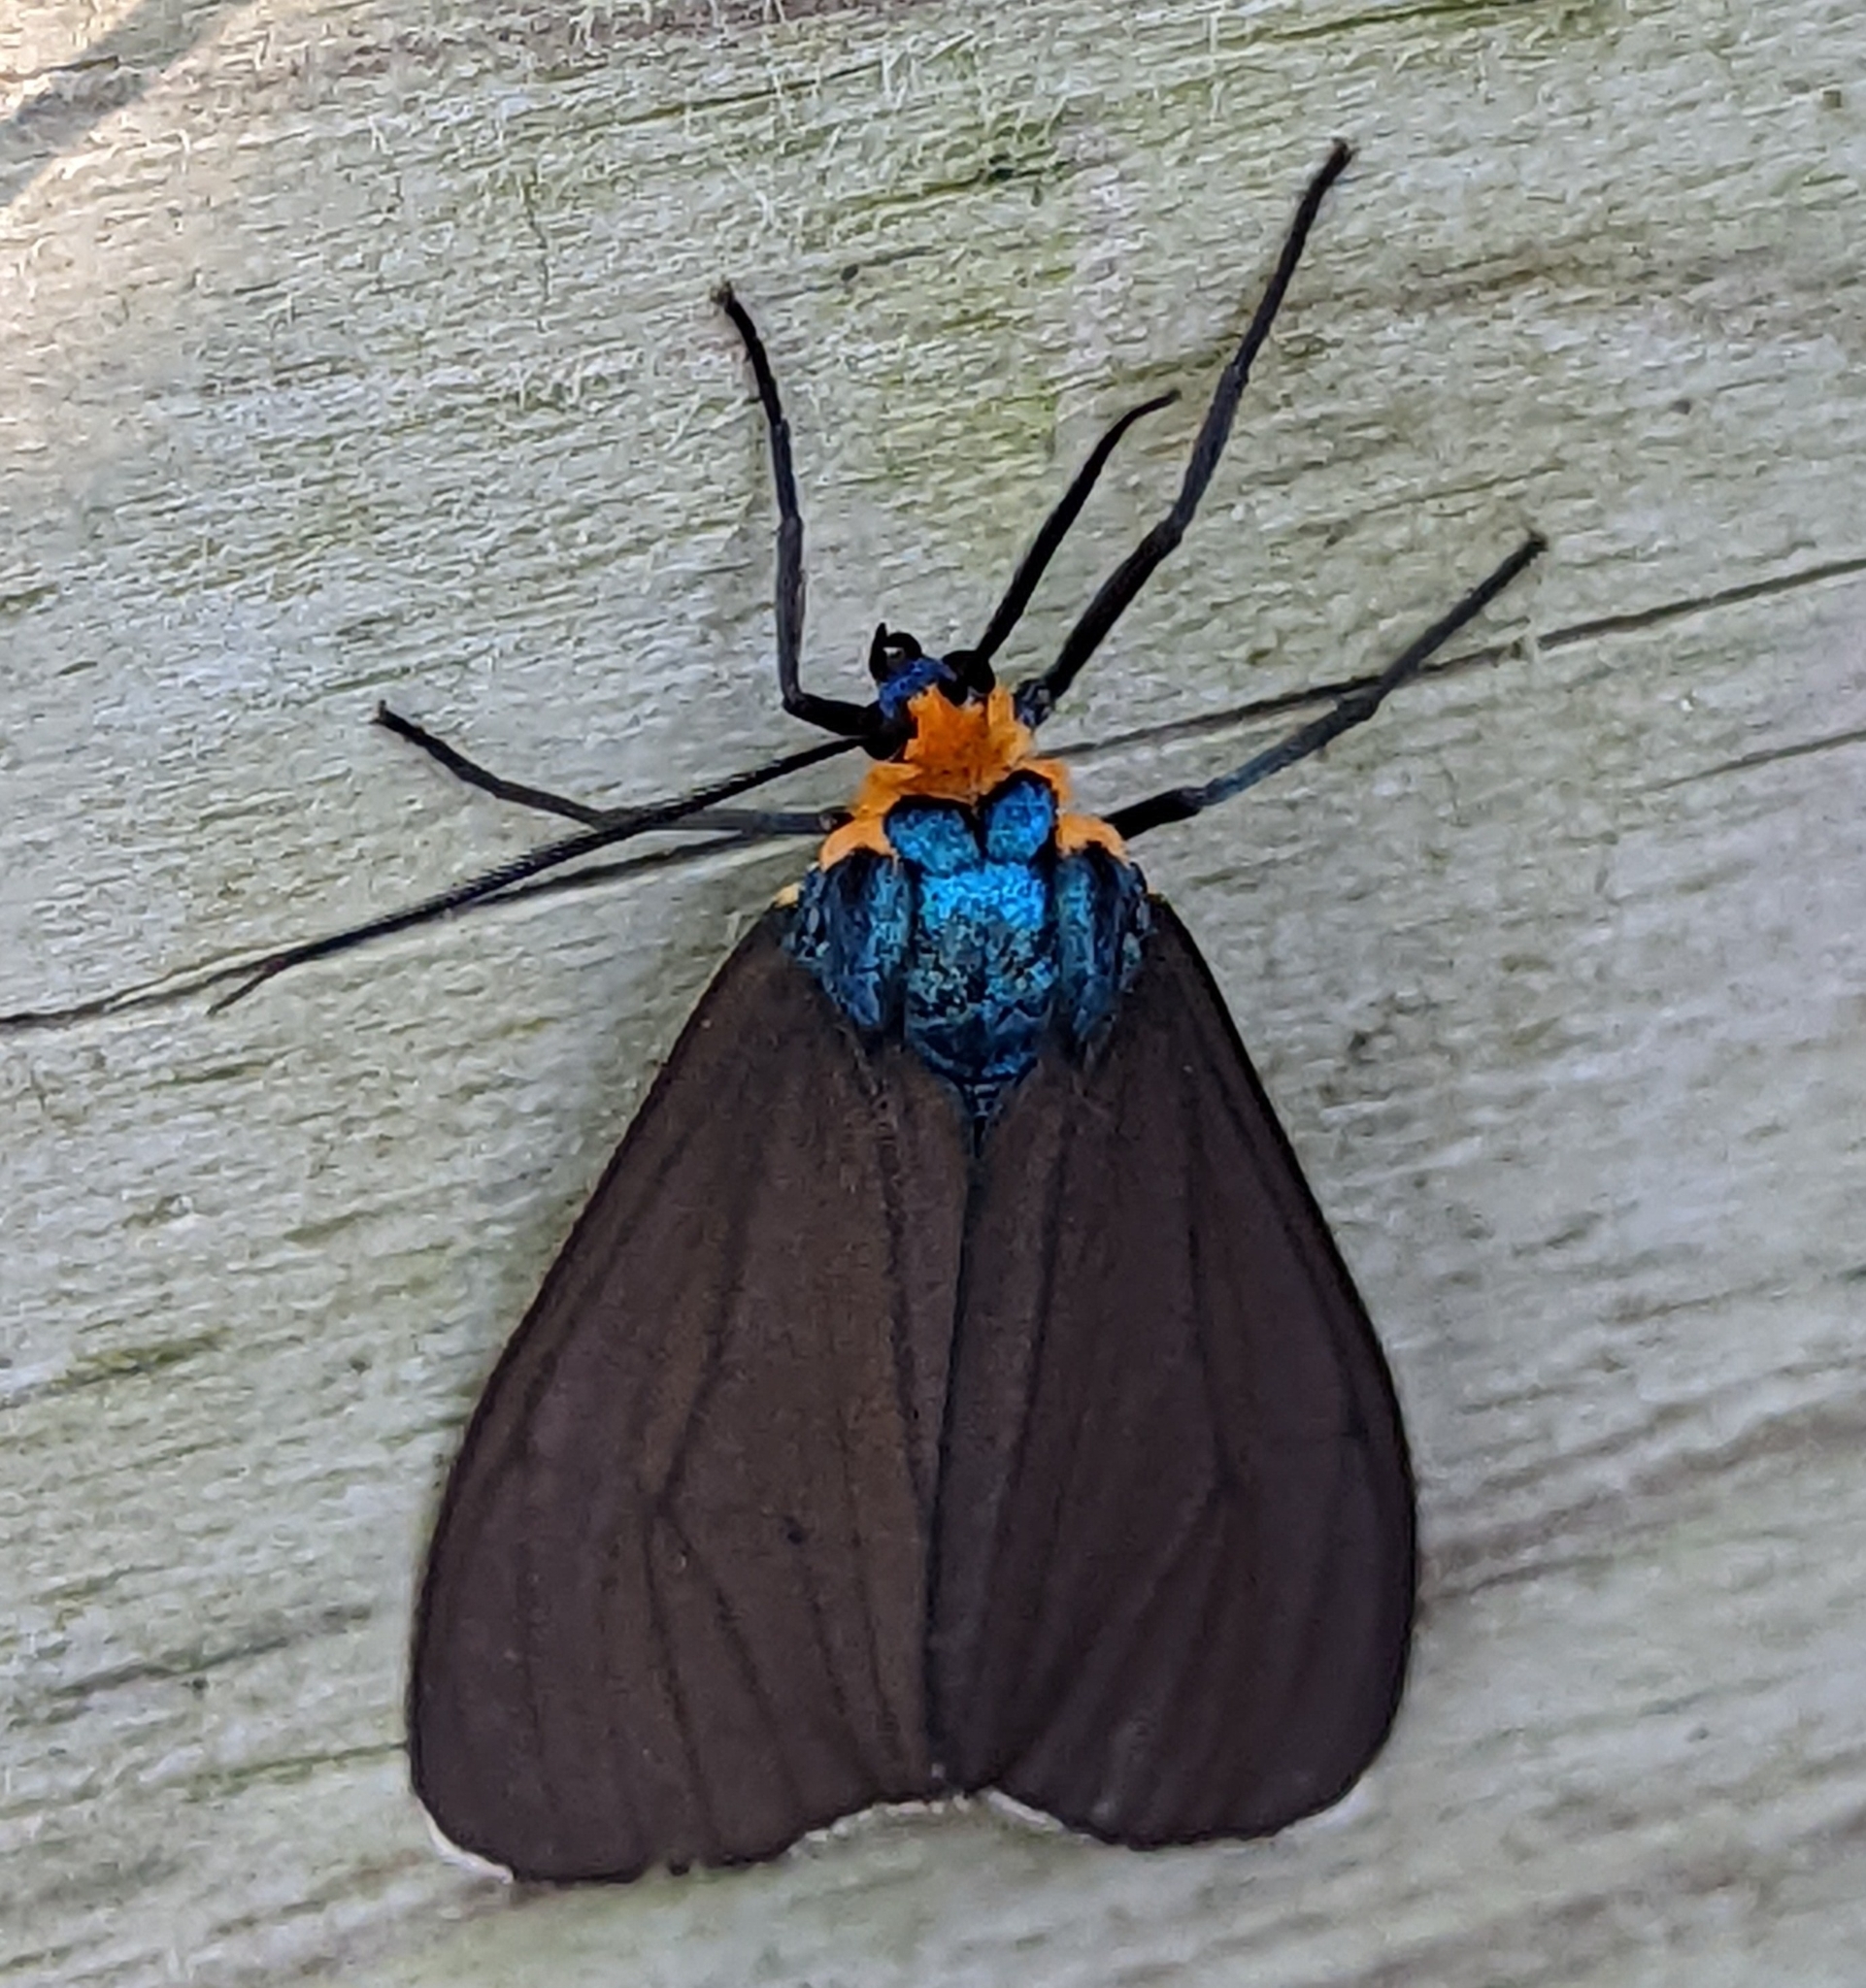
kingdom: Animalia
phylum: Arthropoda
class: Insecta
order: Lepidoptera
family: Erebidae
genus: Ctenucha
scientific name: Ctenucha virginica
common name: Virginia ctenucha moth
